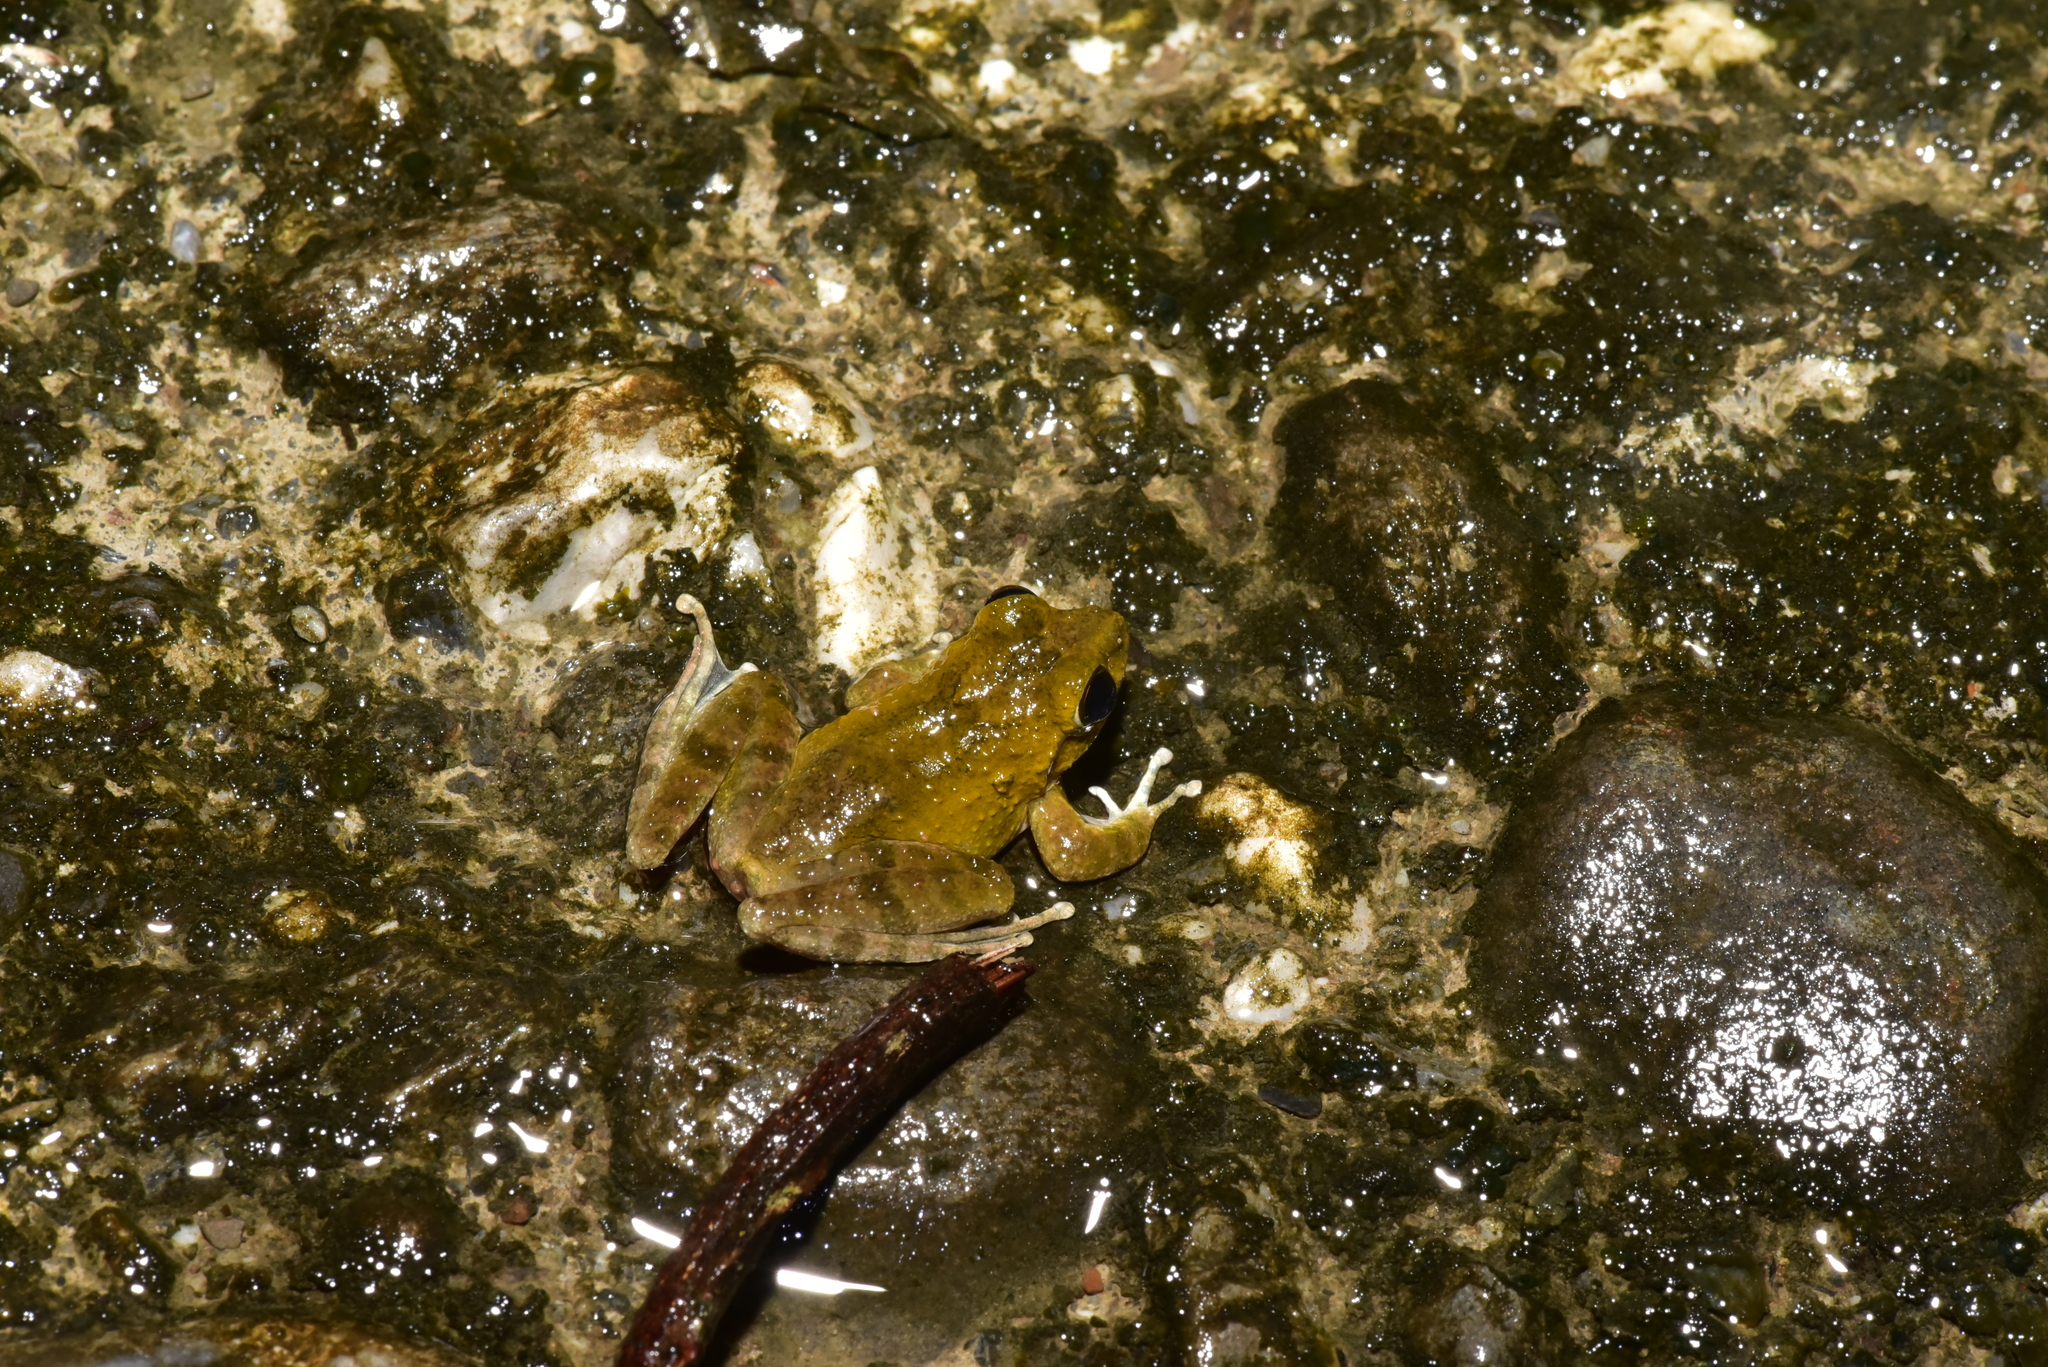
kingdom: Animalia
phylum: Chordata
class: Amphibia
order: Anura
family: Rhacophoridae
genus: Buergeria
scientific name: Buergeria otai
